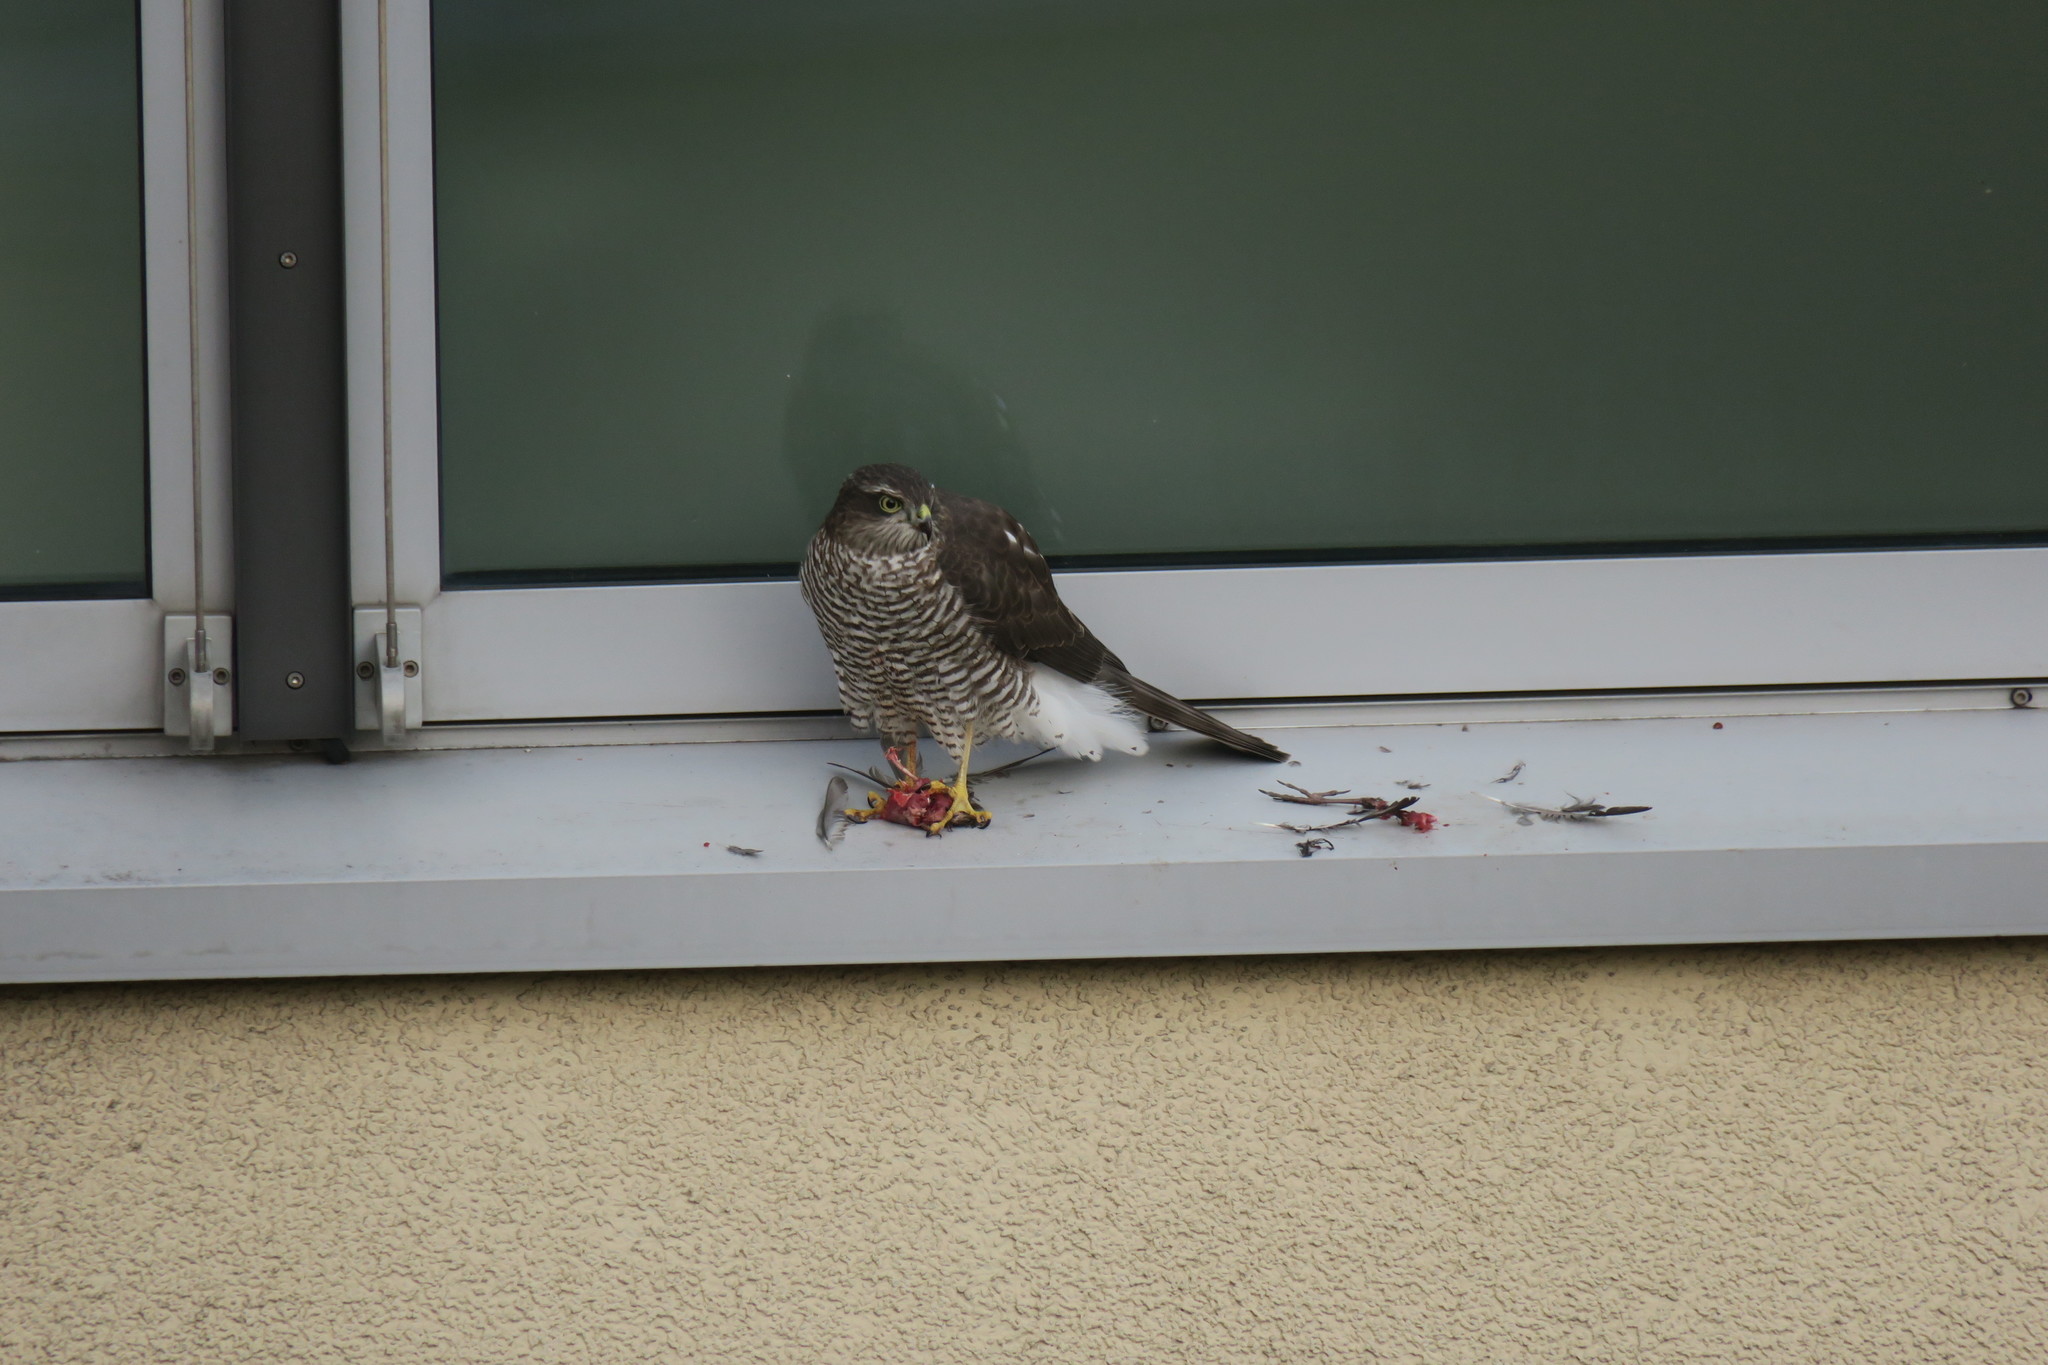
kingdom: Animalia
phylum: Chordata
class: Aves
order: Accipitriformes
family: Accipitridae
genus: Accipiter
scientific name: Accipiter nisus
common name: Eurasian sparrowhawk
